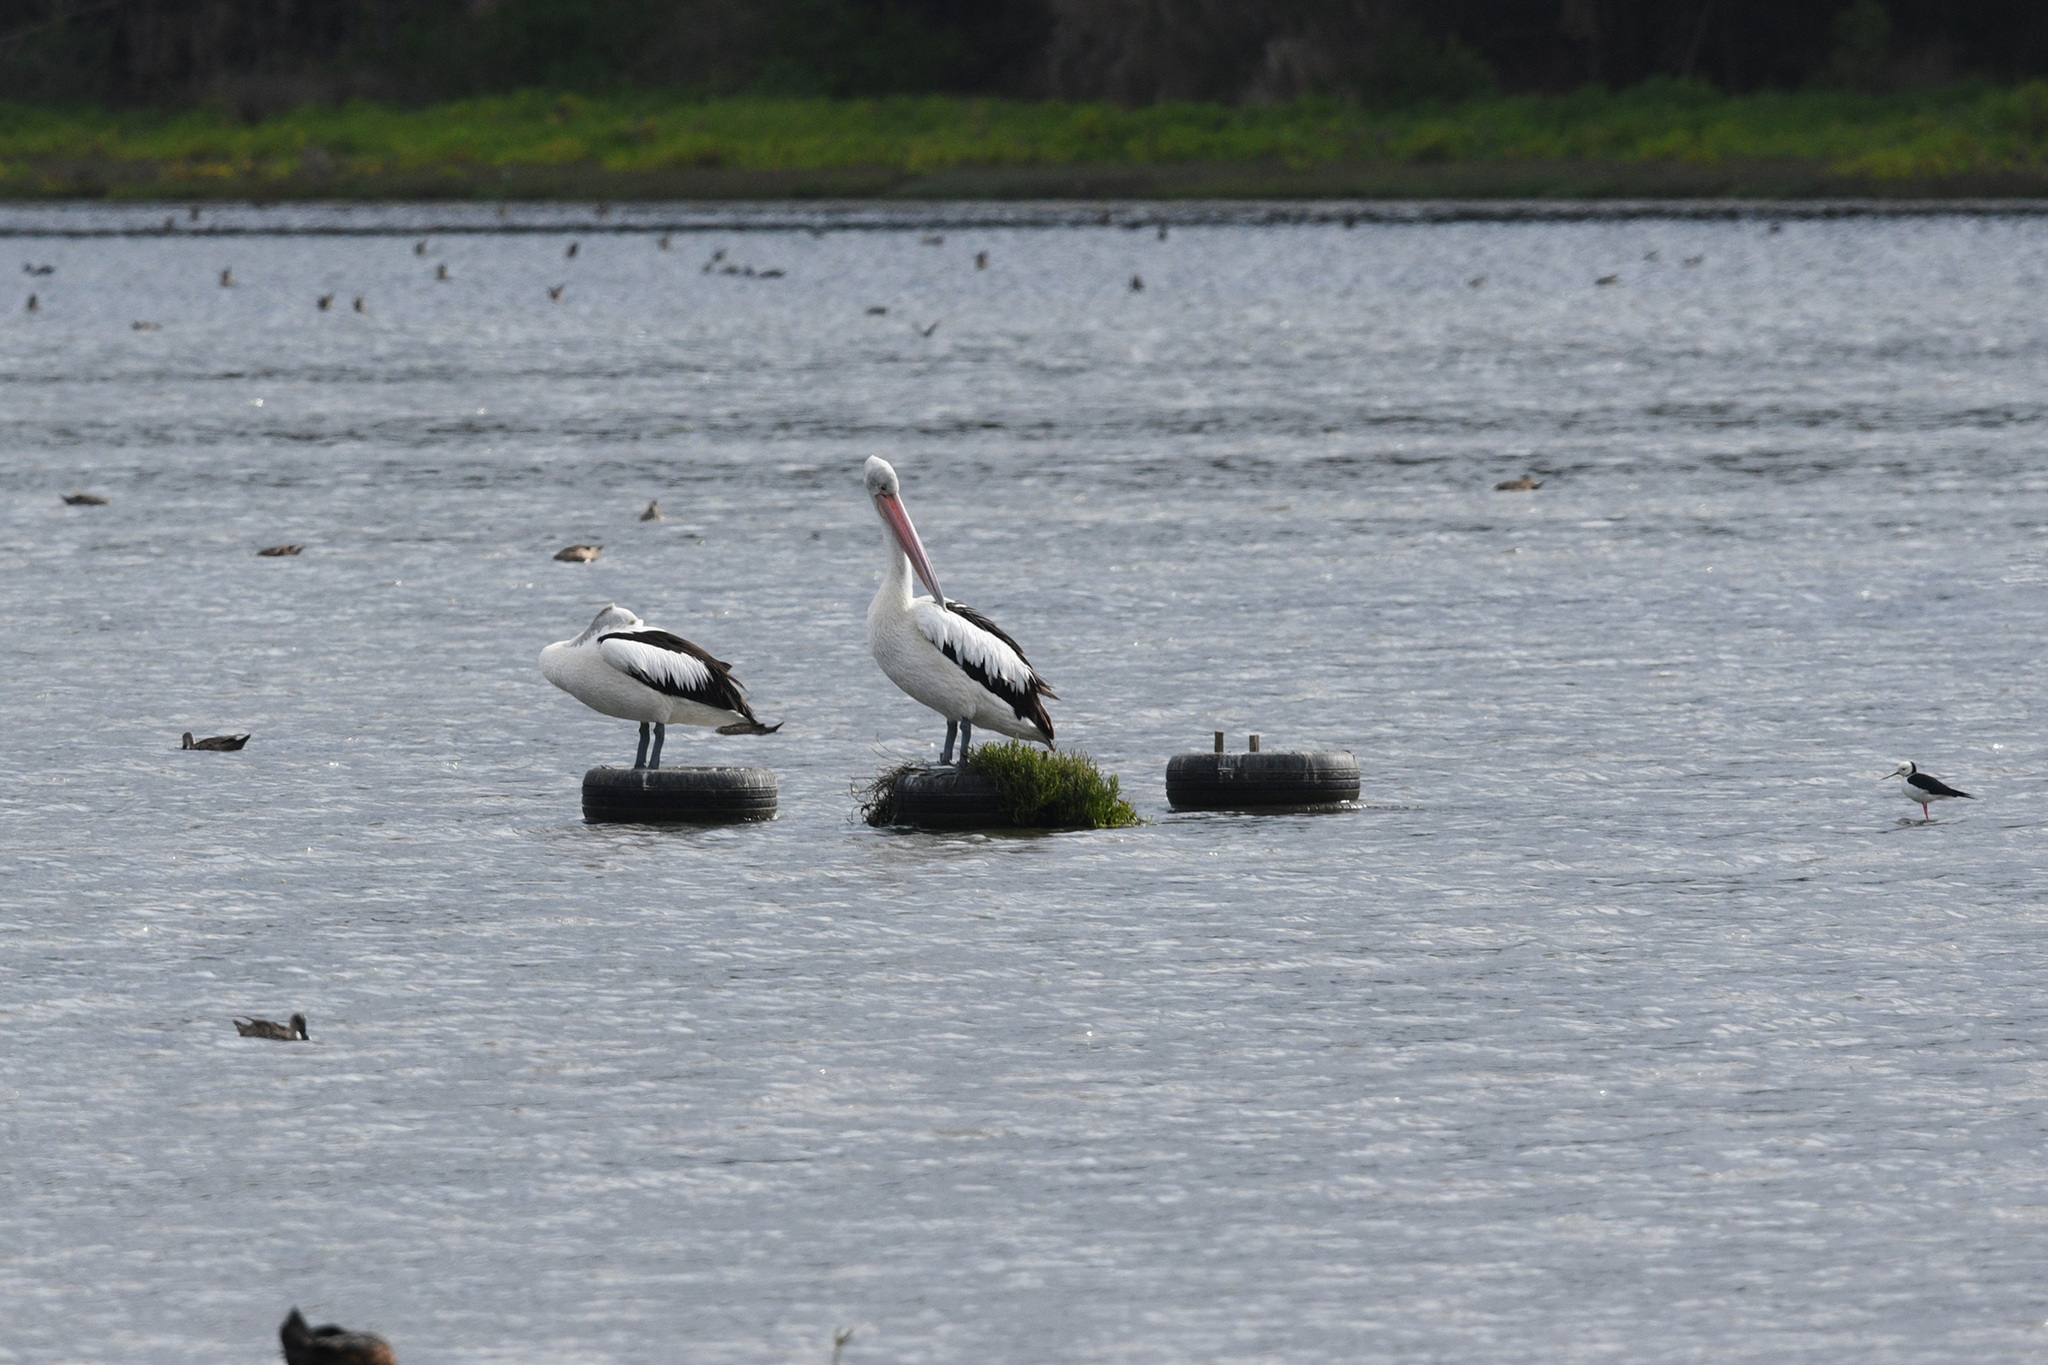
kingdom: Animalia
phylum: Chordata
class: Aves
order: Pelecaniformes
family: Pelecanidae
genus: Pelecanus
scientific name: Pelecanus conspicillatus
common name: Australian pelican
